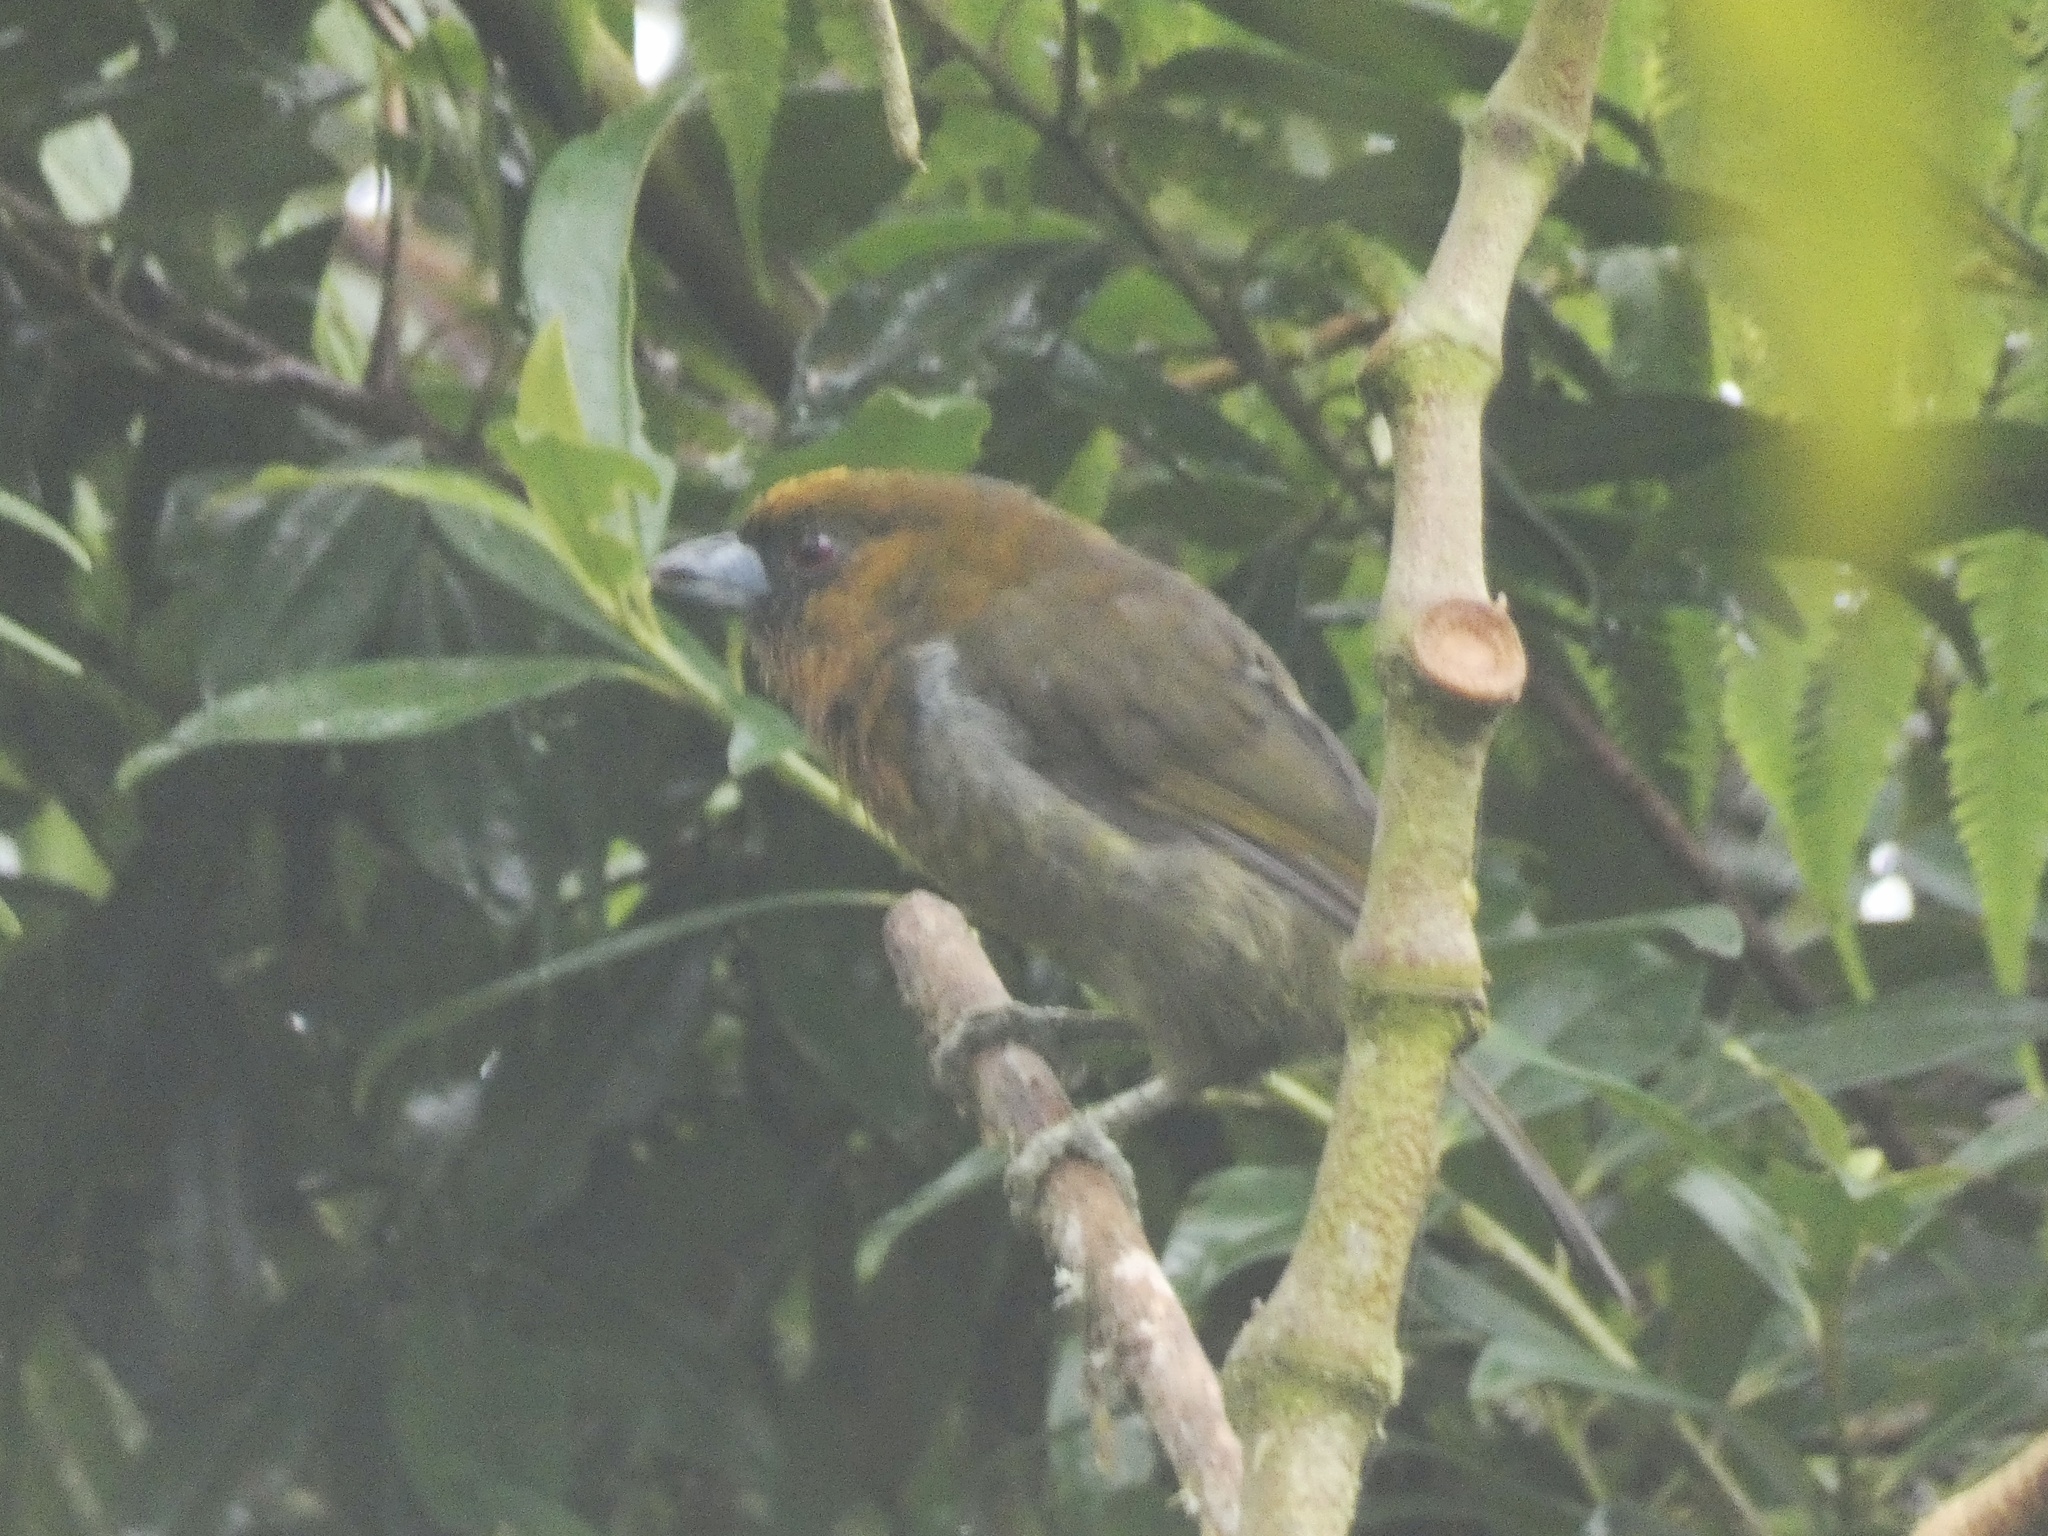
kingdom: Animalia
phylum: Chordata
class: Aves
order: Piciformes
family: Semnornithidae
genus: Semnornis
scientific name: Semnornis frantzii
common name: Prong-billed barbet
